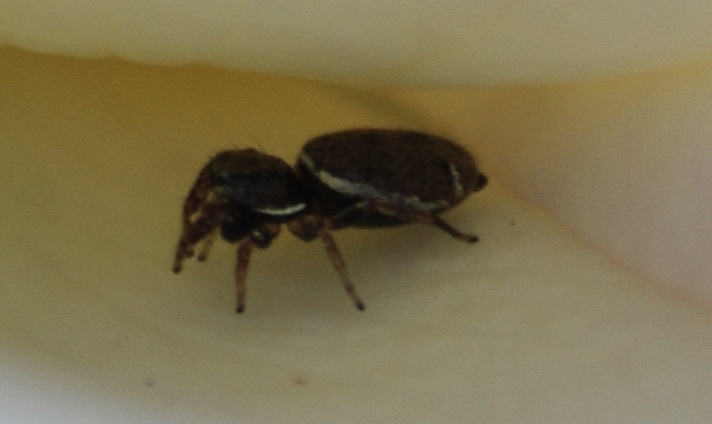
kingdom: Animalia
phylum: Arthropoda
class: Arachnida
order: Araneae
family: Salticidae
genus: Sassacus
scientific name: Sassacus vitis
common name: Jumping spiders
